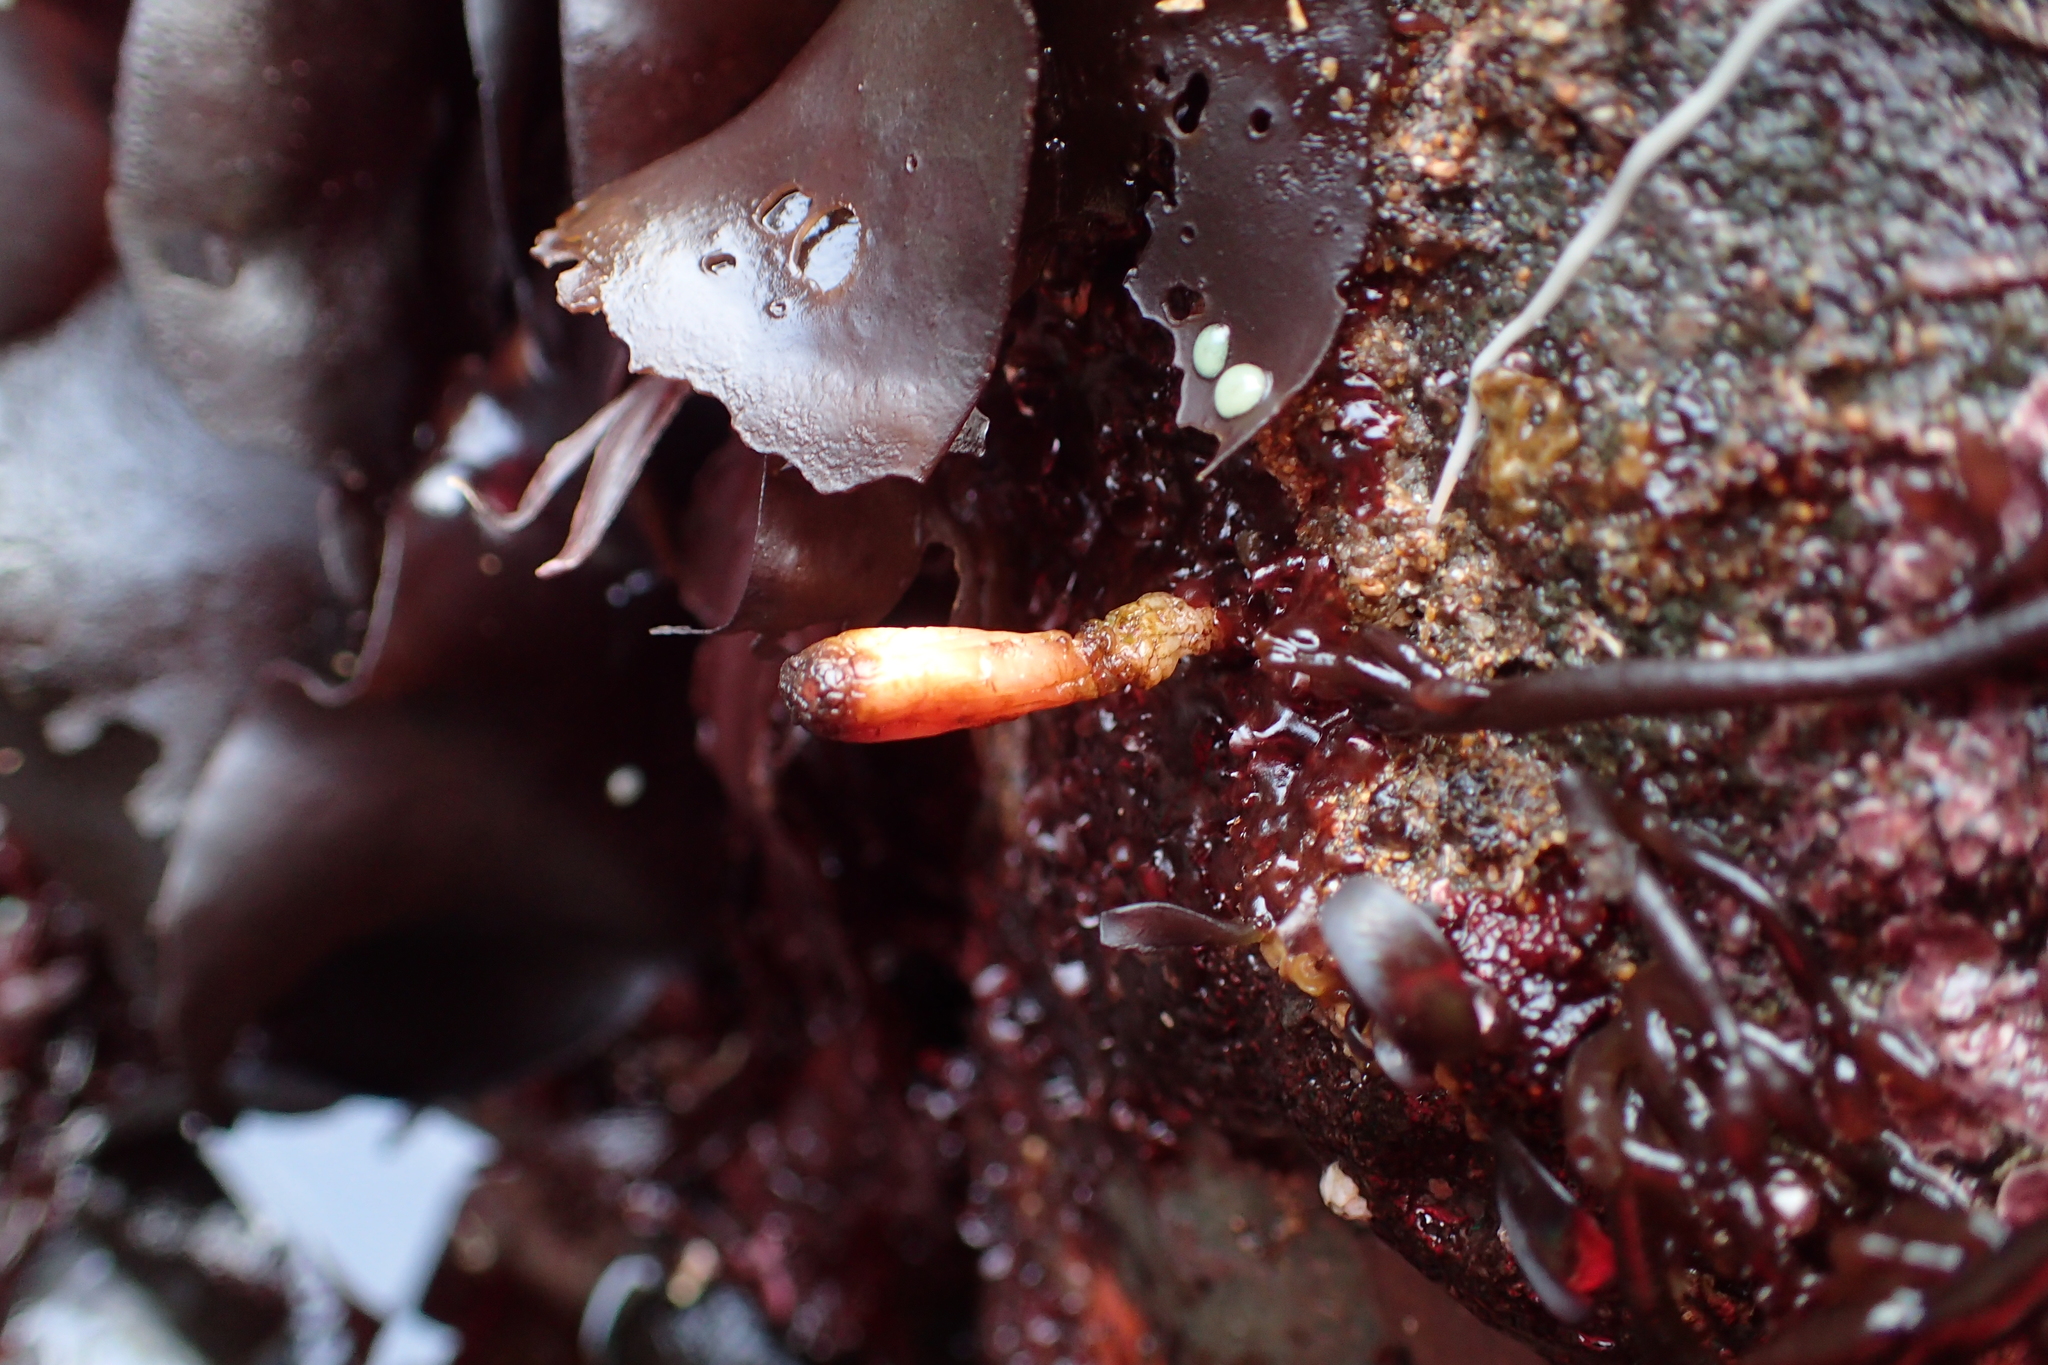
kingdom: Animalia
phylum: Chordata
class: Ascidiacea
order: Stolidobranchia
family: Styelidae
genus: Styela
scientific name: Styela montereyensis
